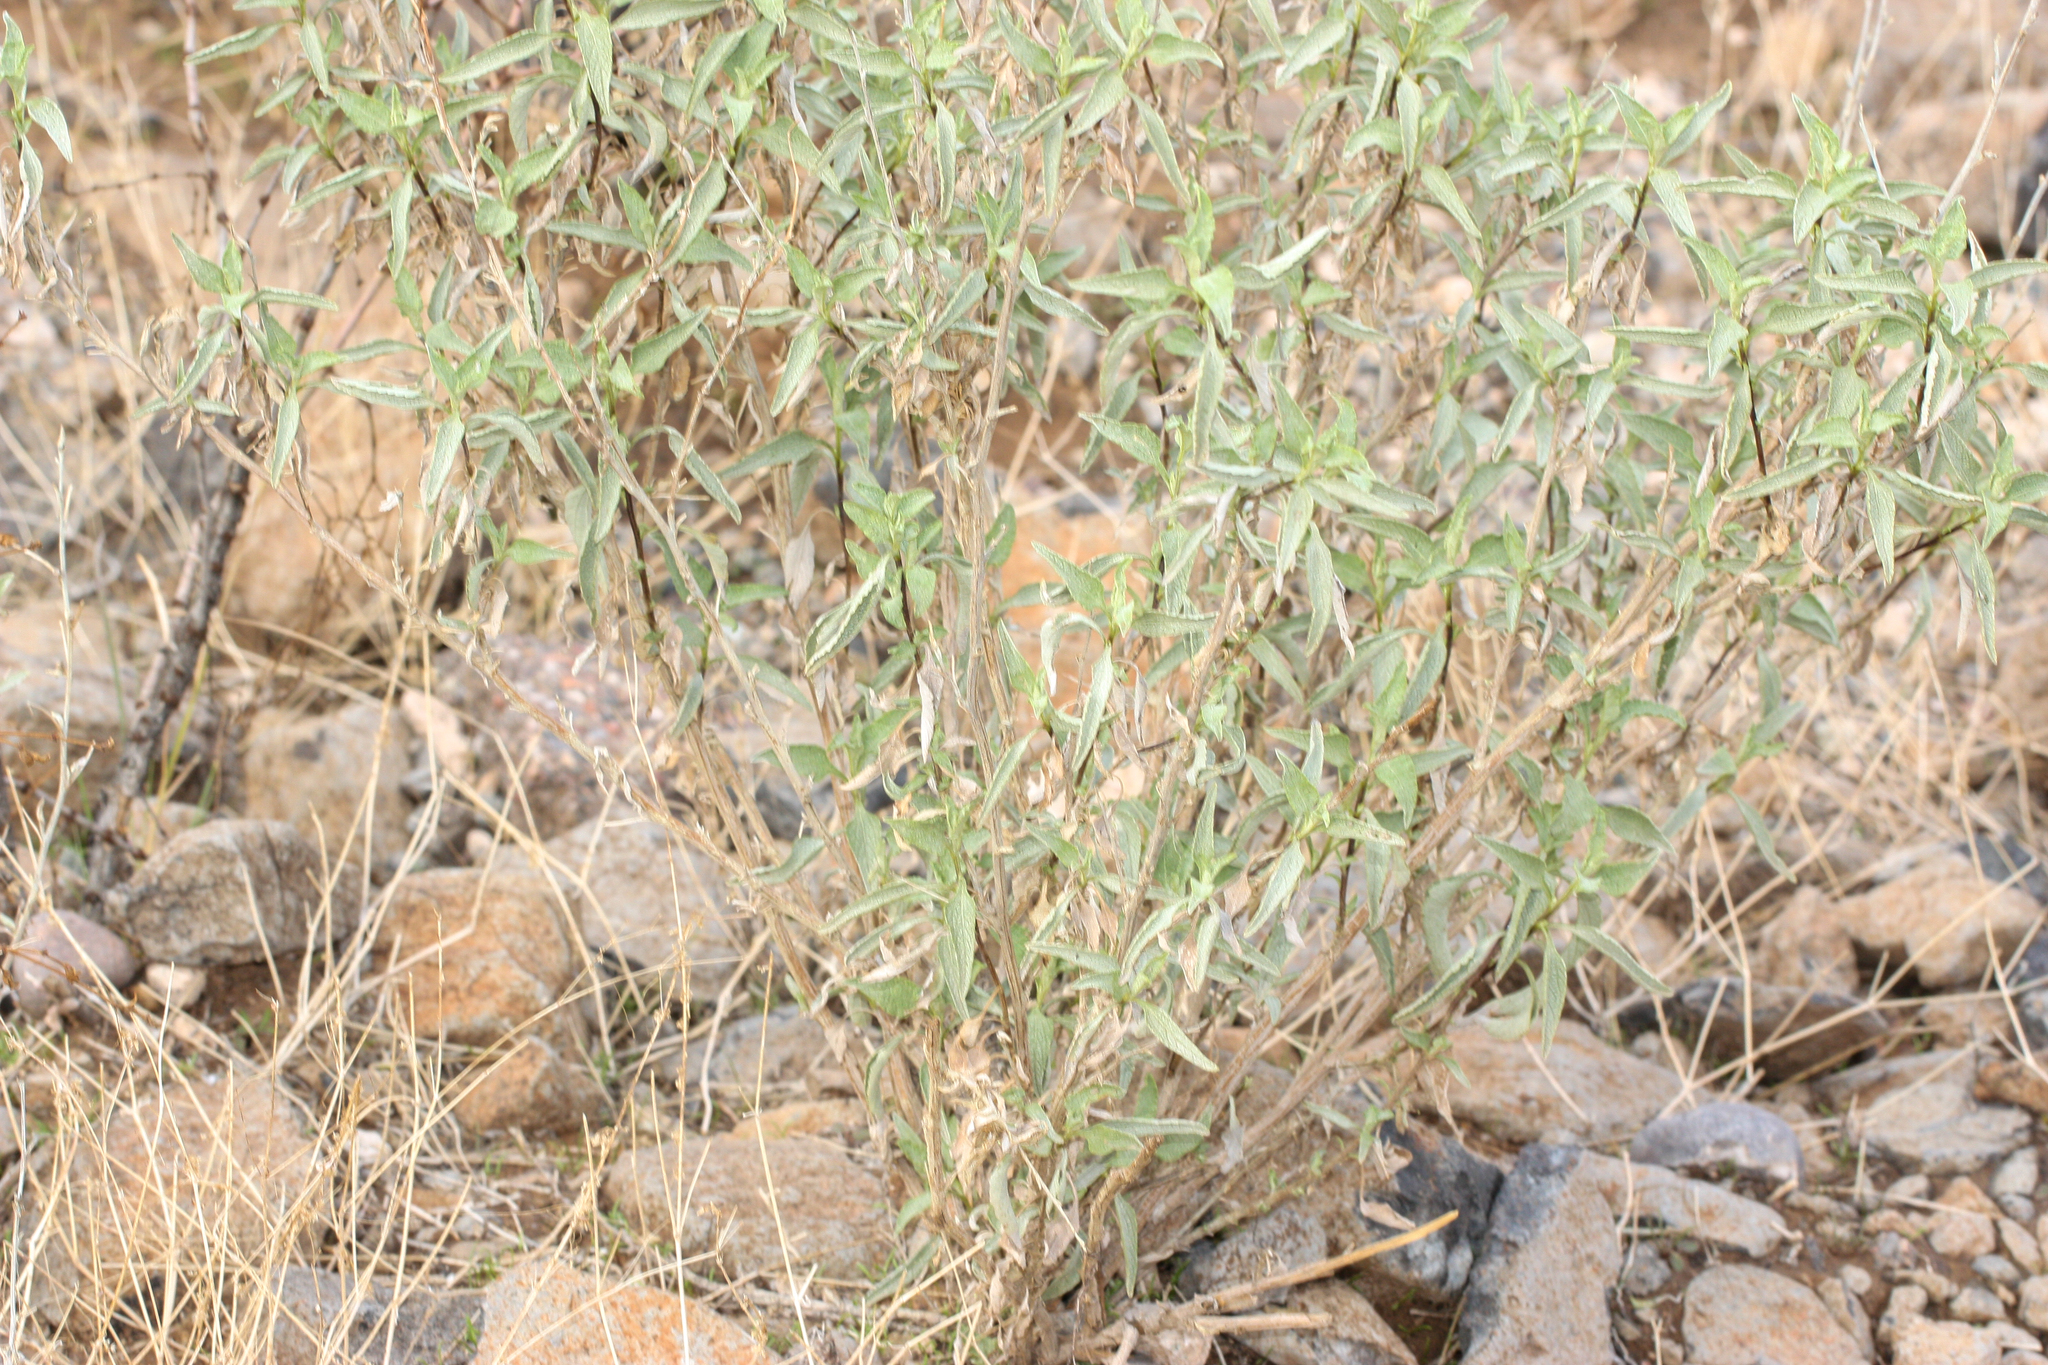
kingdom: Plantae
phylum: Tracheophyta
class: Magnoliopsida
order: Asterales
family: Asteraceae
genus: Ambrosia
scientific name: Ambrosia deltoidea
